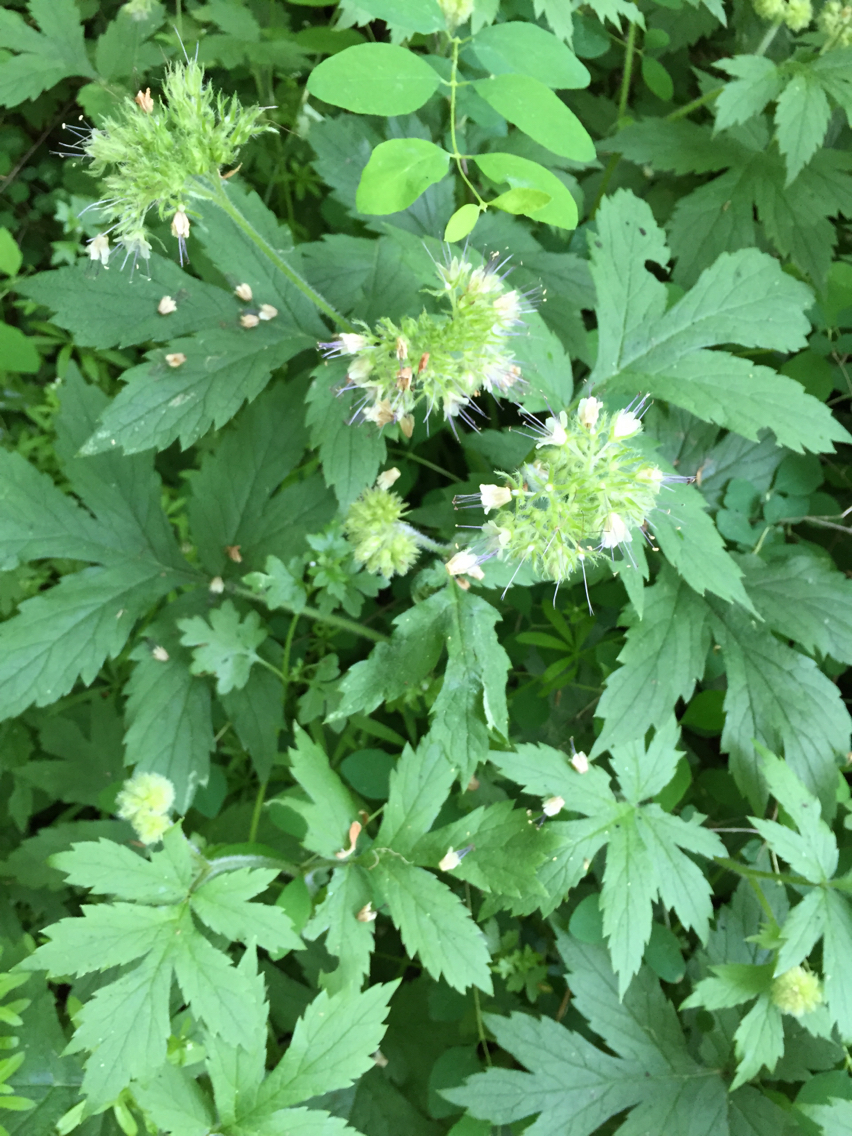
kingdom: Plantae
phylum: Tracheophyta
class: Magnoliopsida
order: Boraginales
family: Hydrophyllaceae
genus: Hydrophyllum
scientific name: Hydrophyllum tenuipes
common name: Pacific waterleaf
